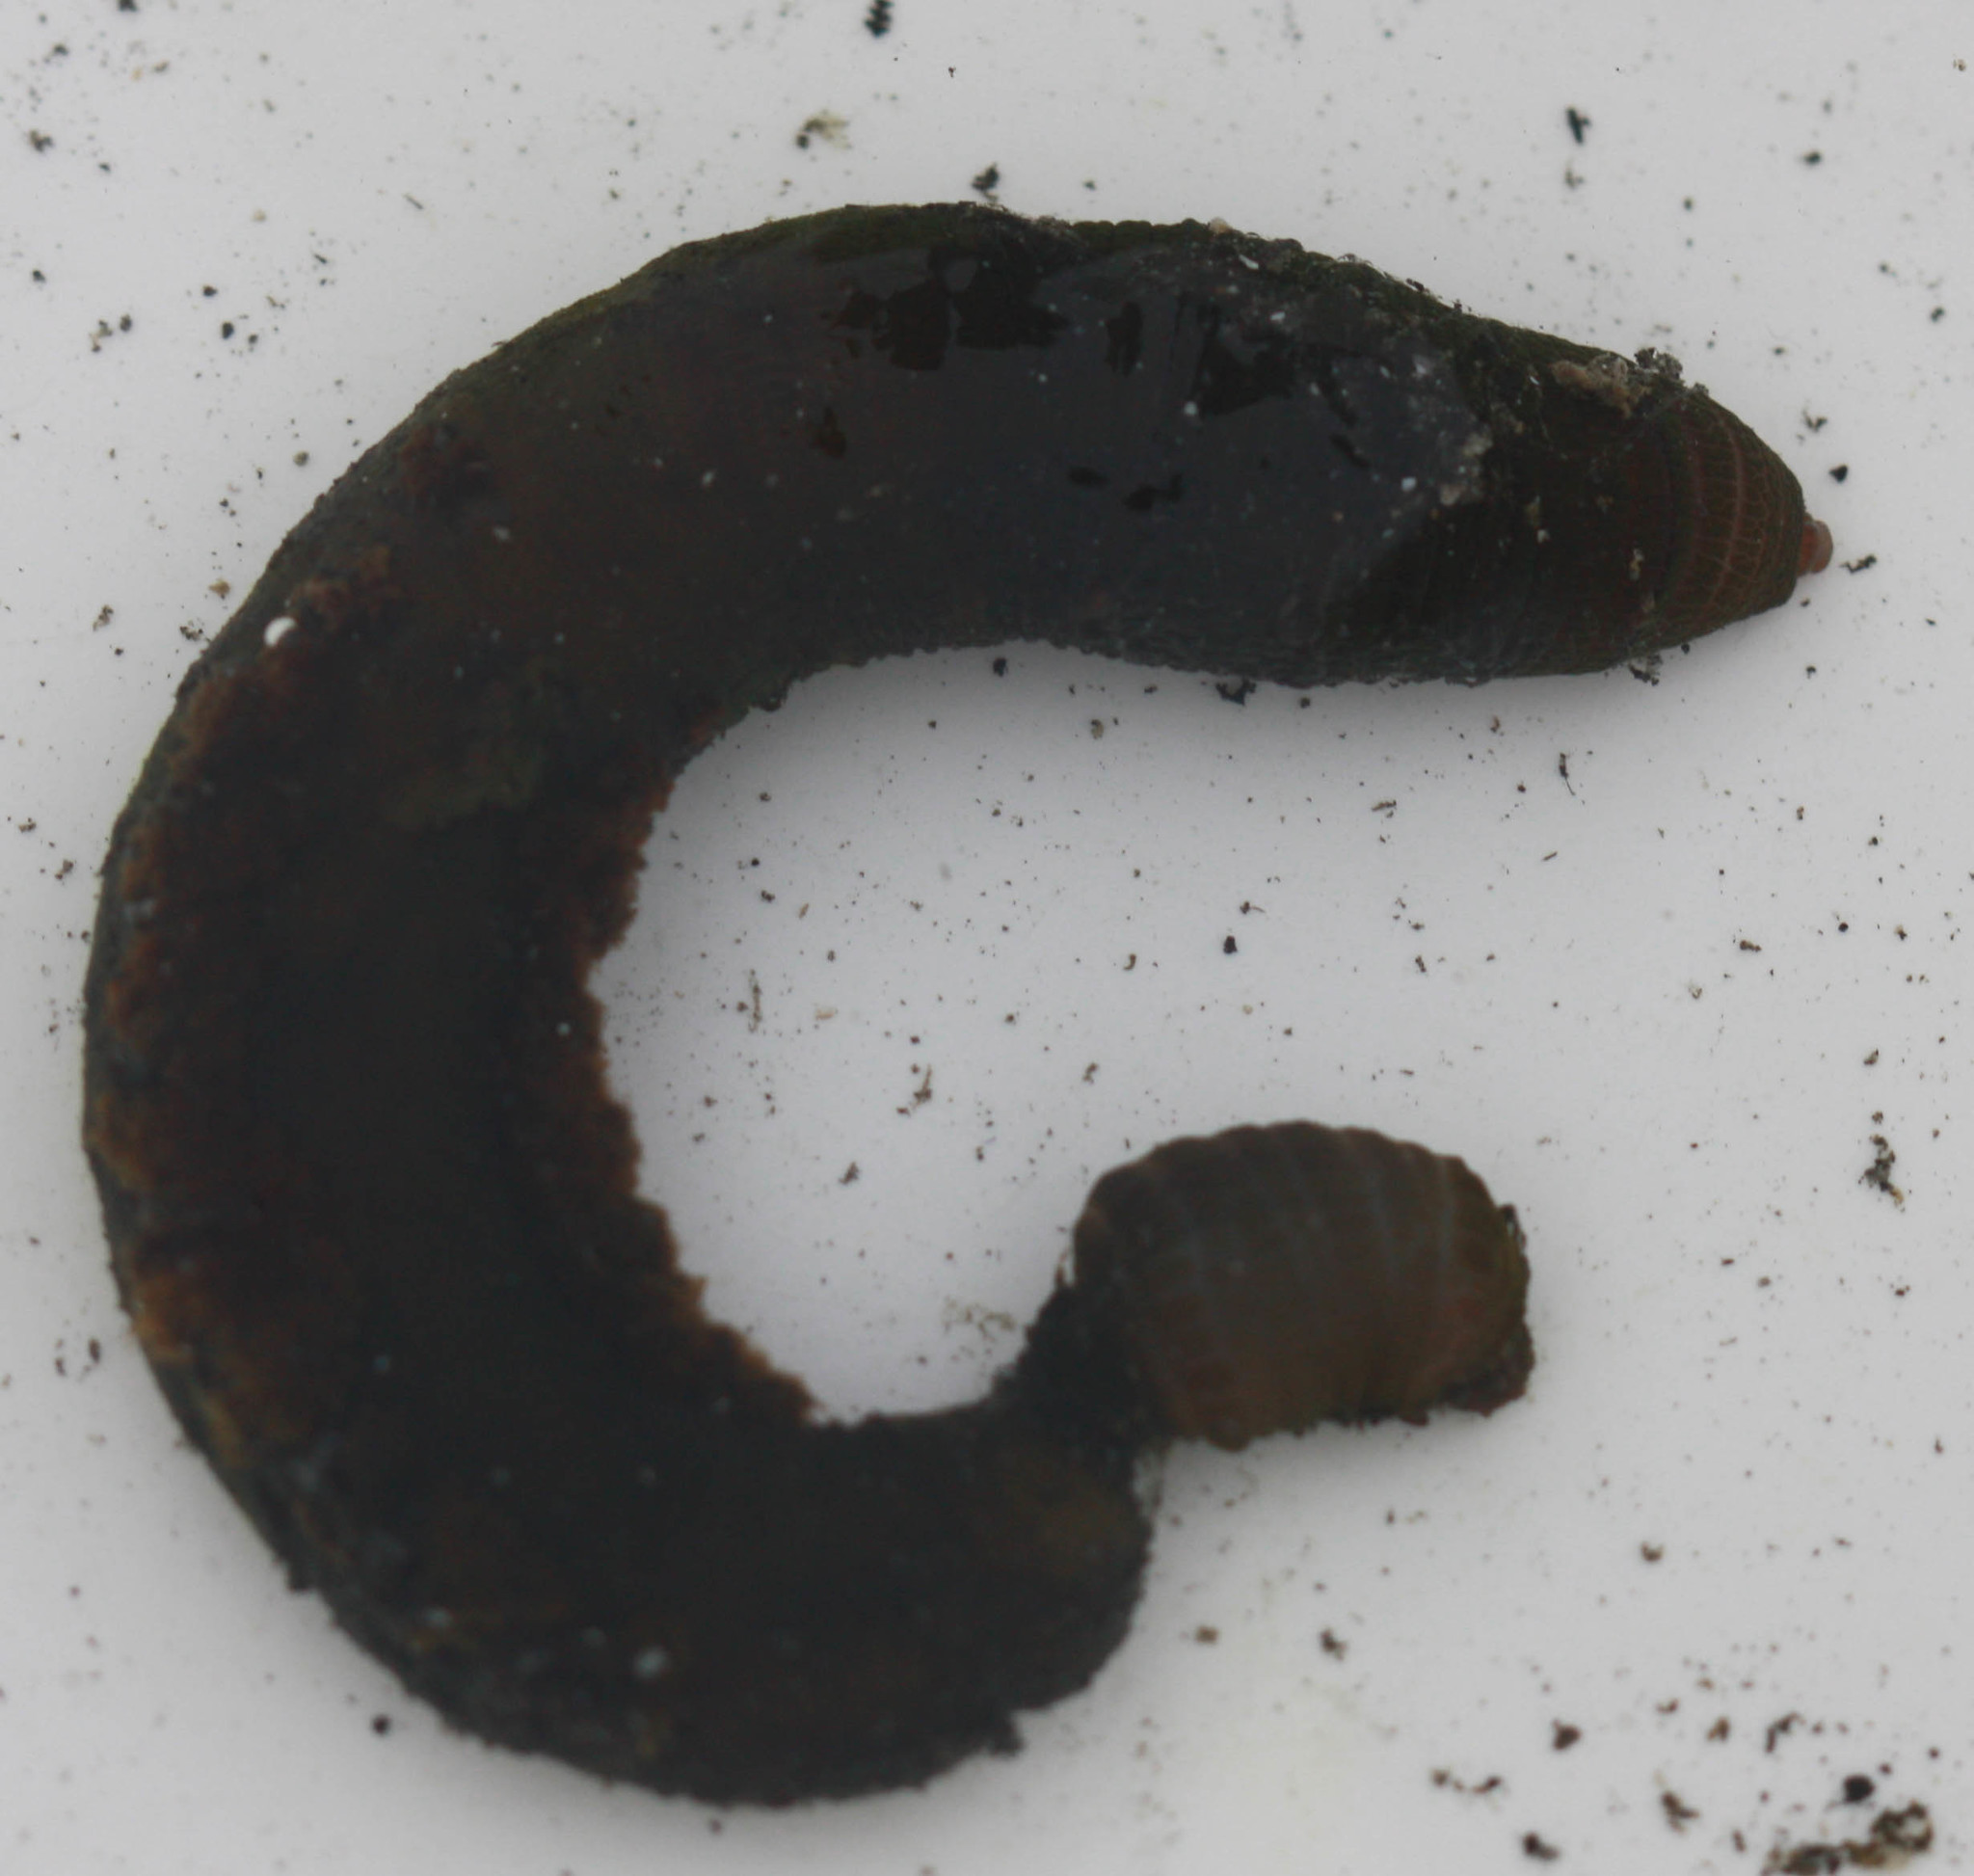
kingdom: Animalia
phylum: Annelida
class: Polychaeta
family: Arenicolidae
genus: Arenicola
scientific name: Arenicola cristata
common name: American lug worm
